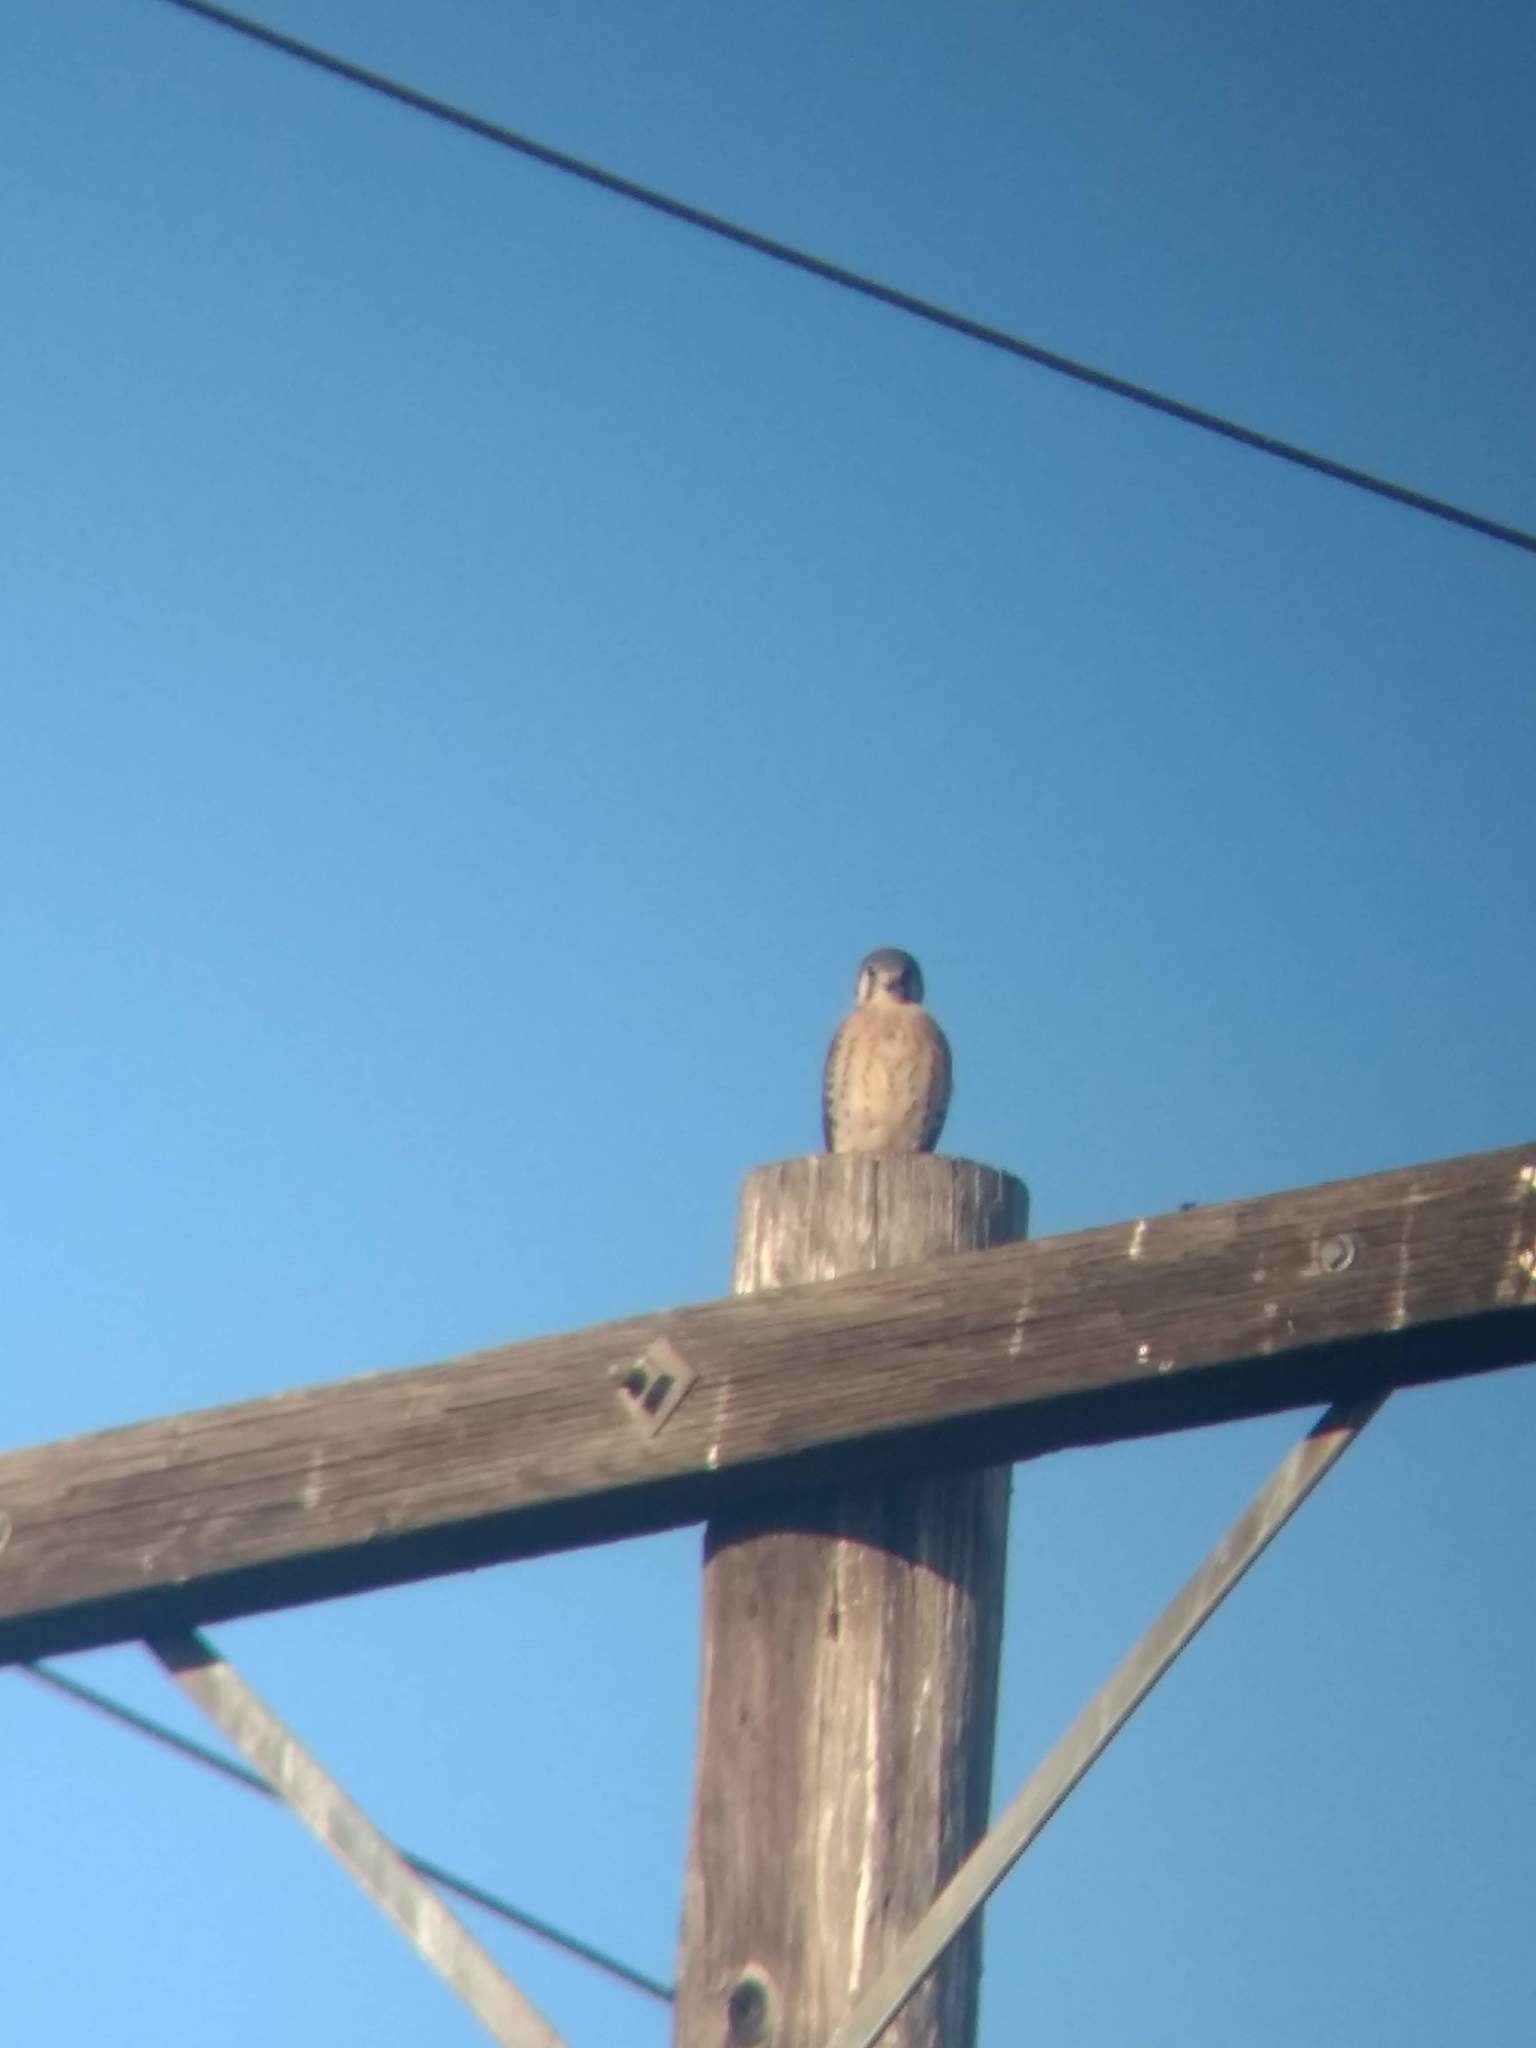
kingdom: Animalia
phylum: Chordata
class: Aves
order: Falconiformes
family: Falconidae
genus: Falco
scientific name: Falco sparverius
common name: American kestrel
